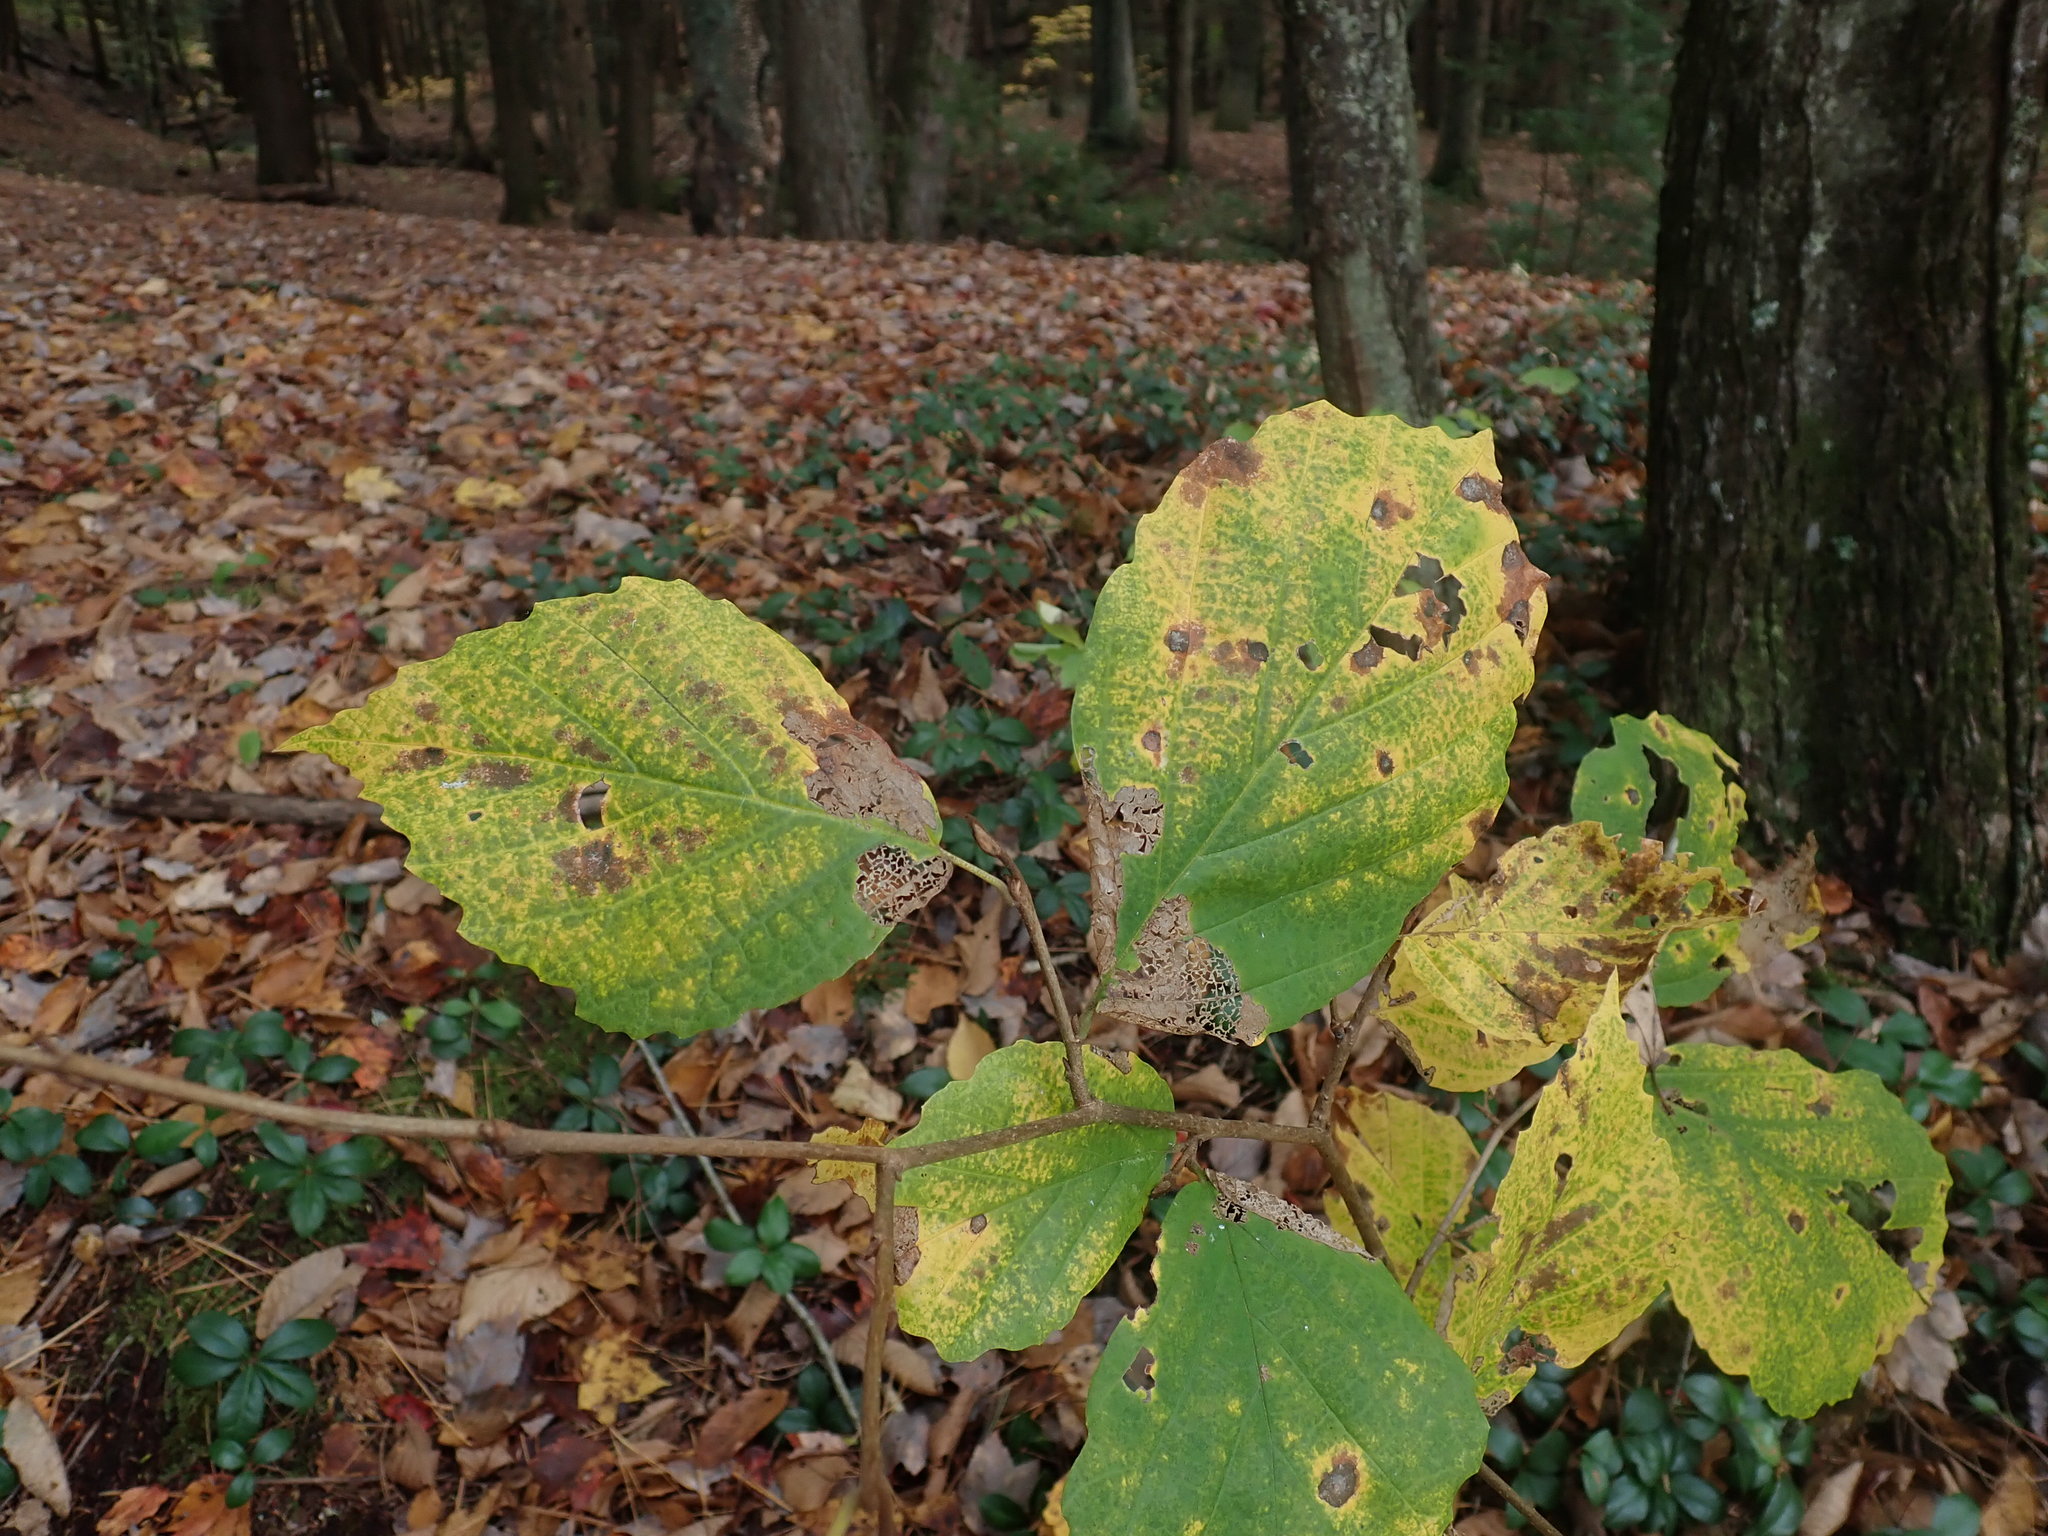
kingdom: Plantae
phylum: Tracheophyta
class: Magnoliopsida
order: Saxifragales
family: Hamamelidaceae
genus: Hamamelis
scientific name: Hamamelis virginiana
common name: Witch-hazel
